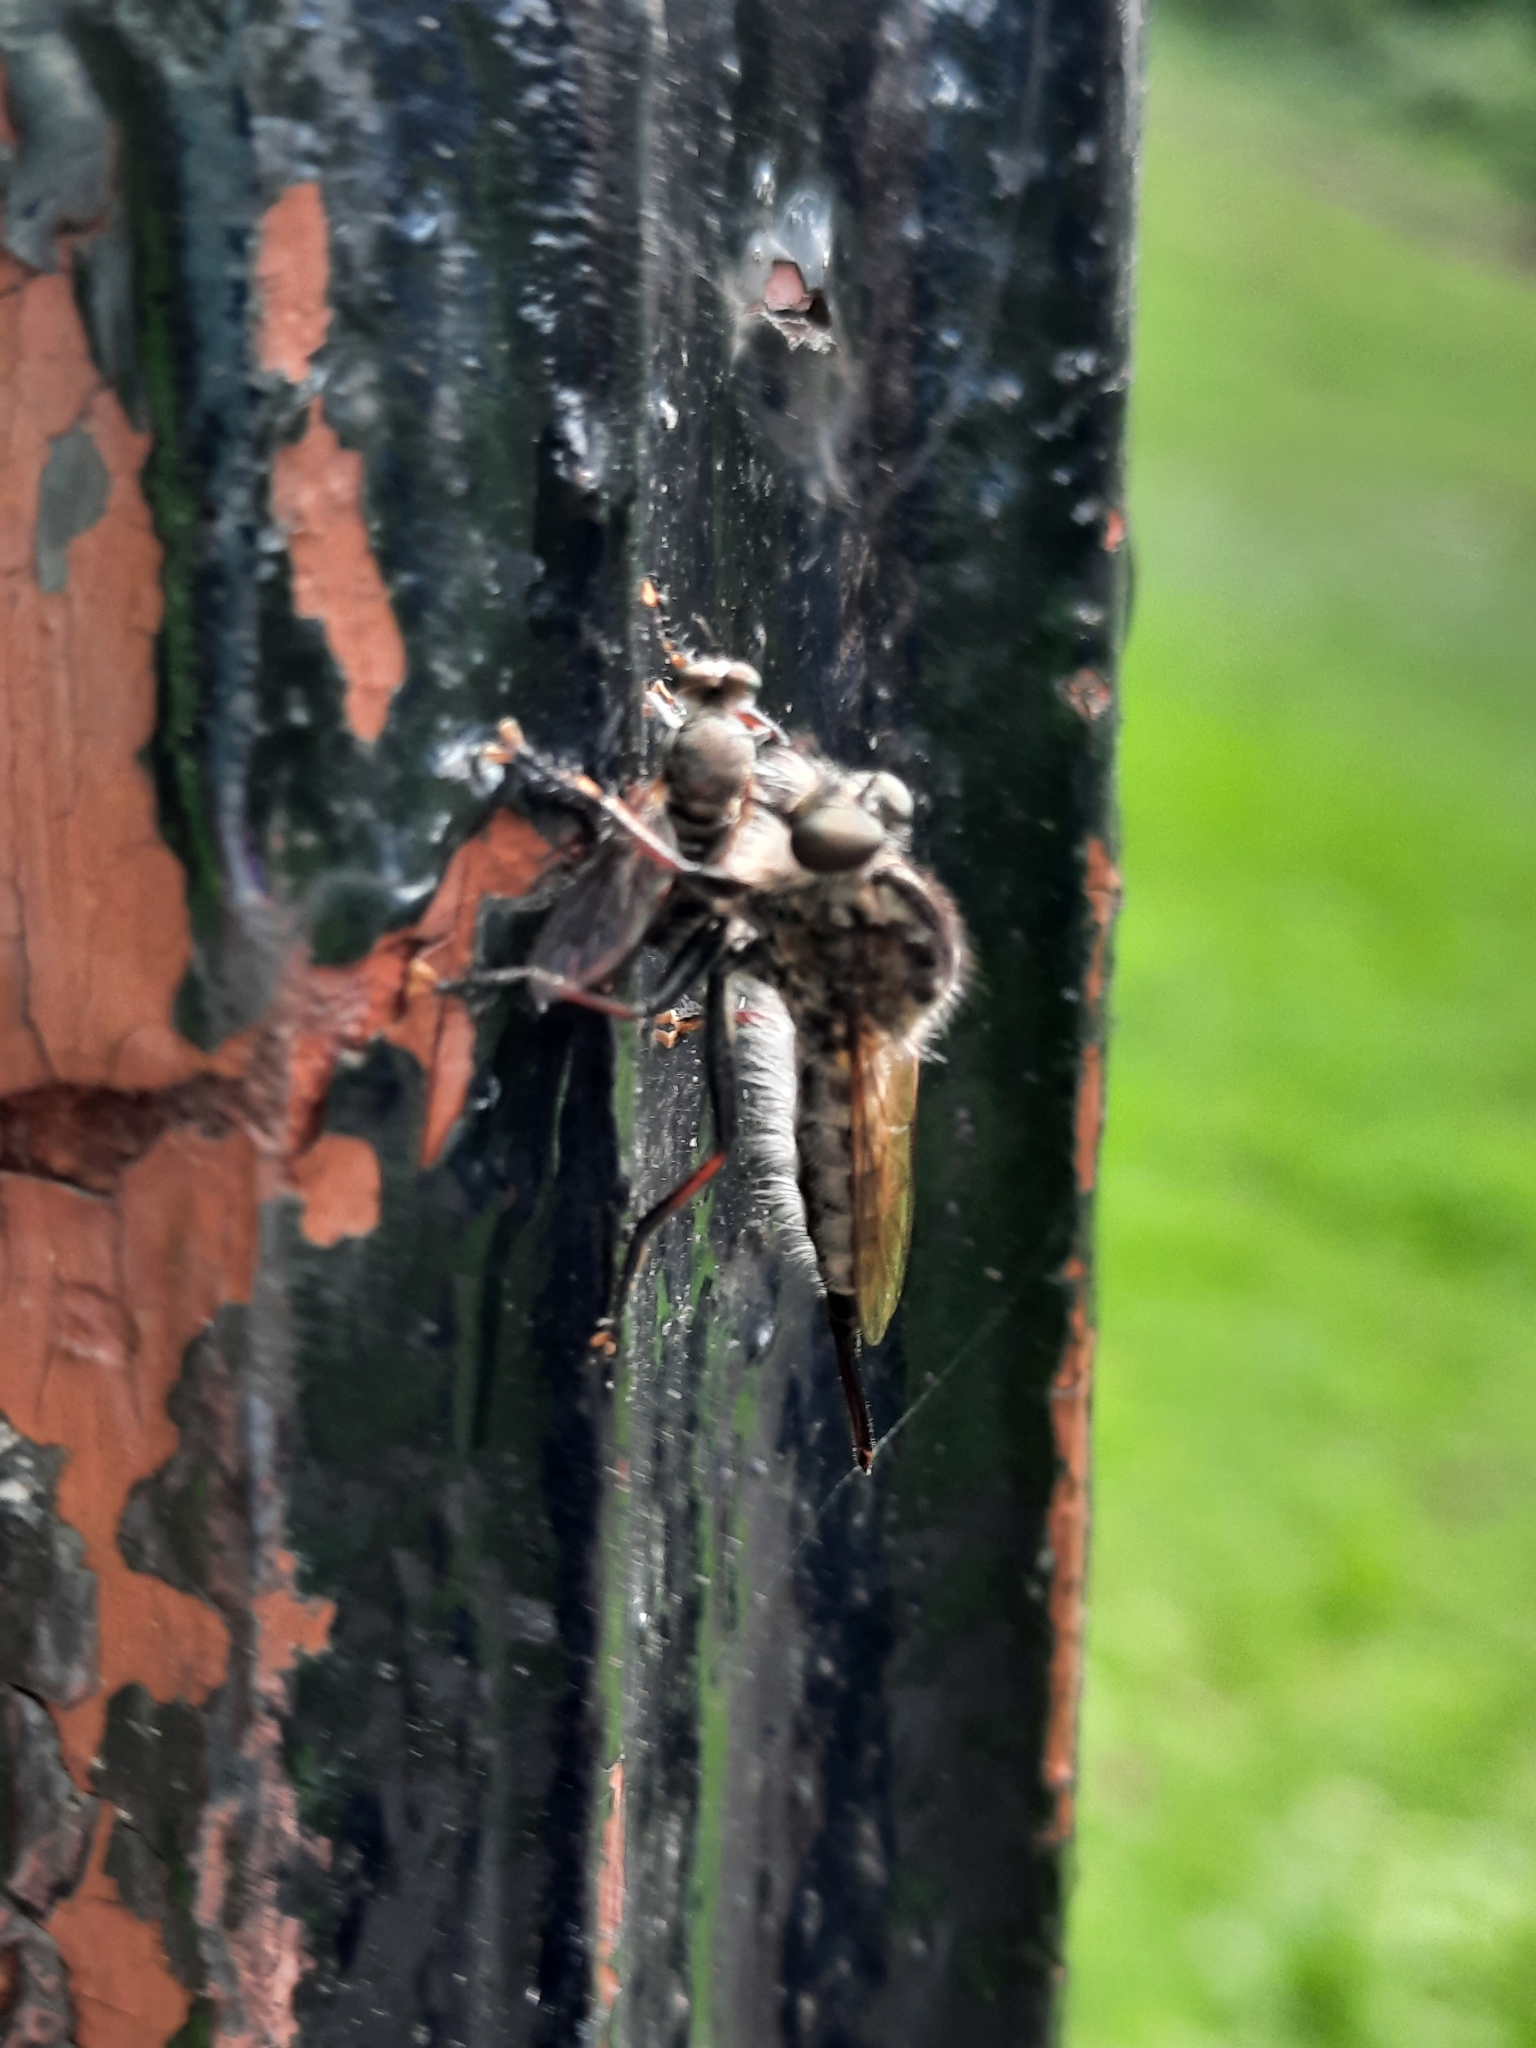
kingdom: Animalia
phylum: Arthropoda
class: Insecta
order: Diptera
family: Asilidae
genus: Efferia
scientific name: Efferia aestuans
